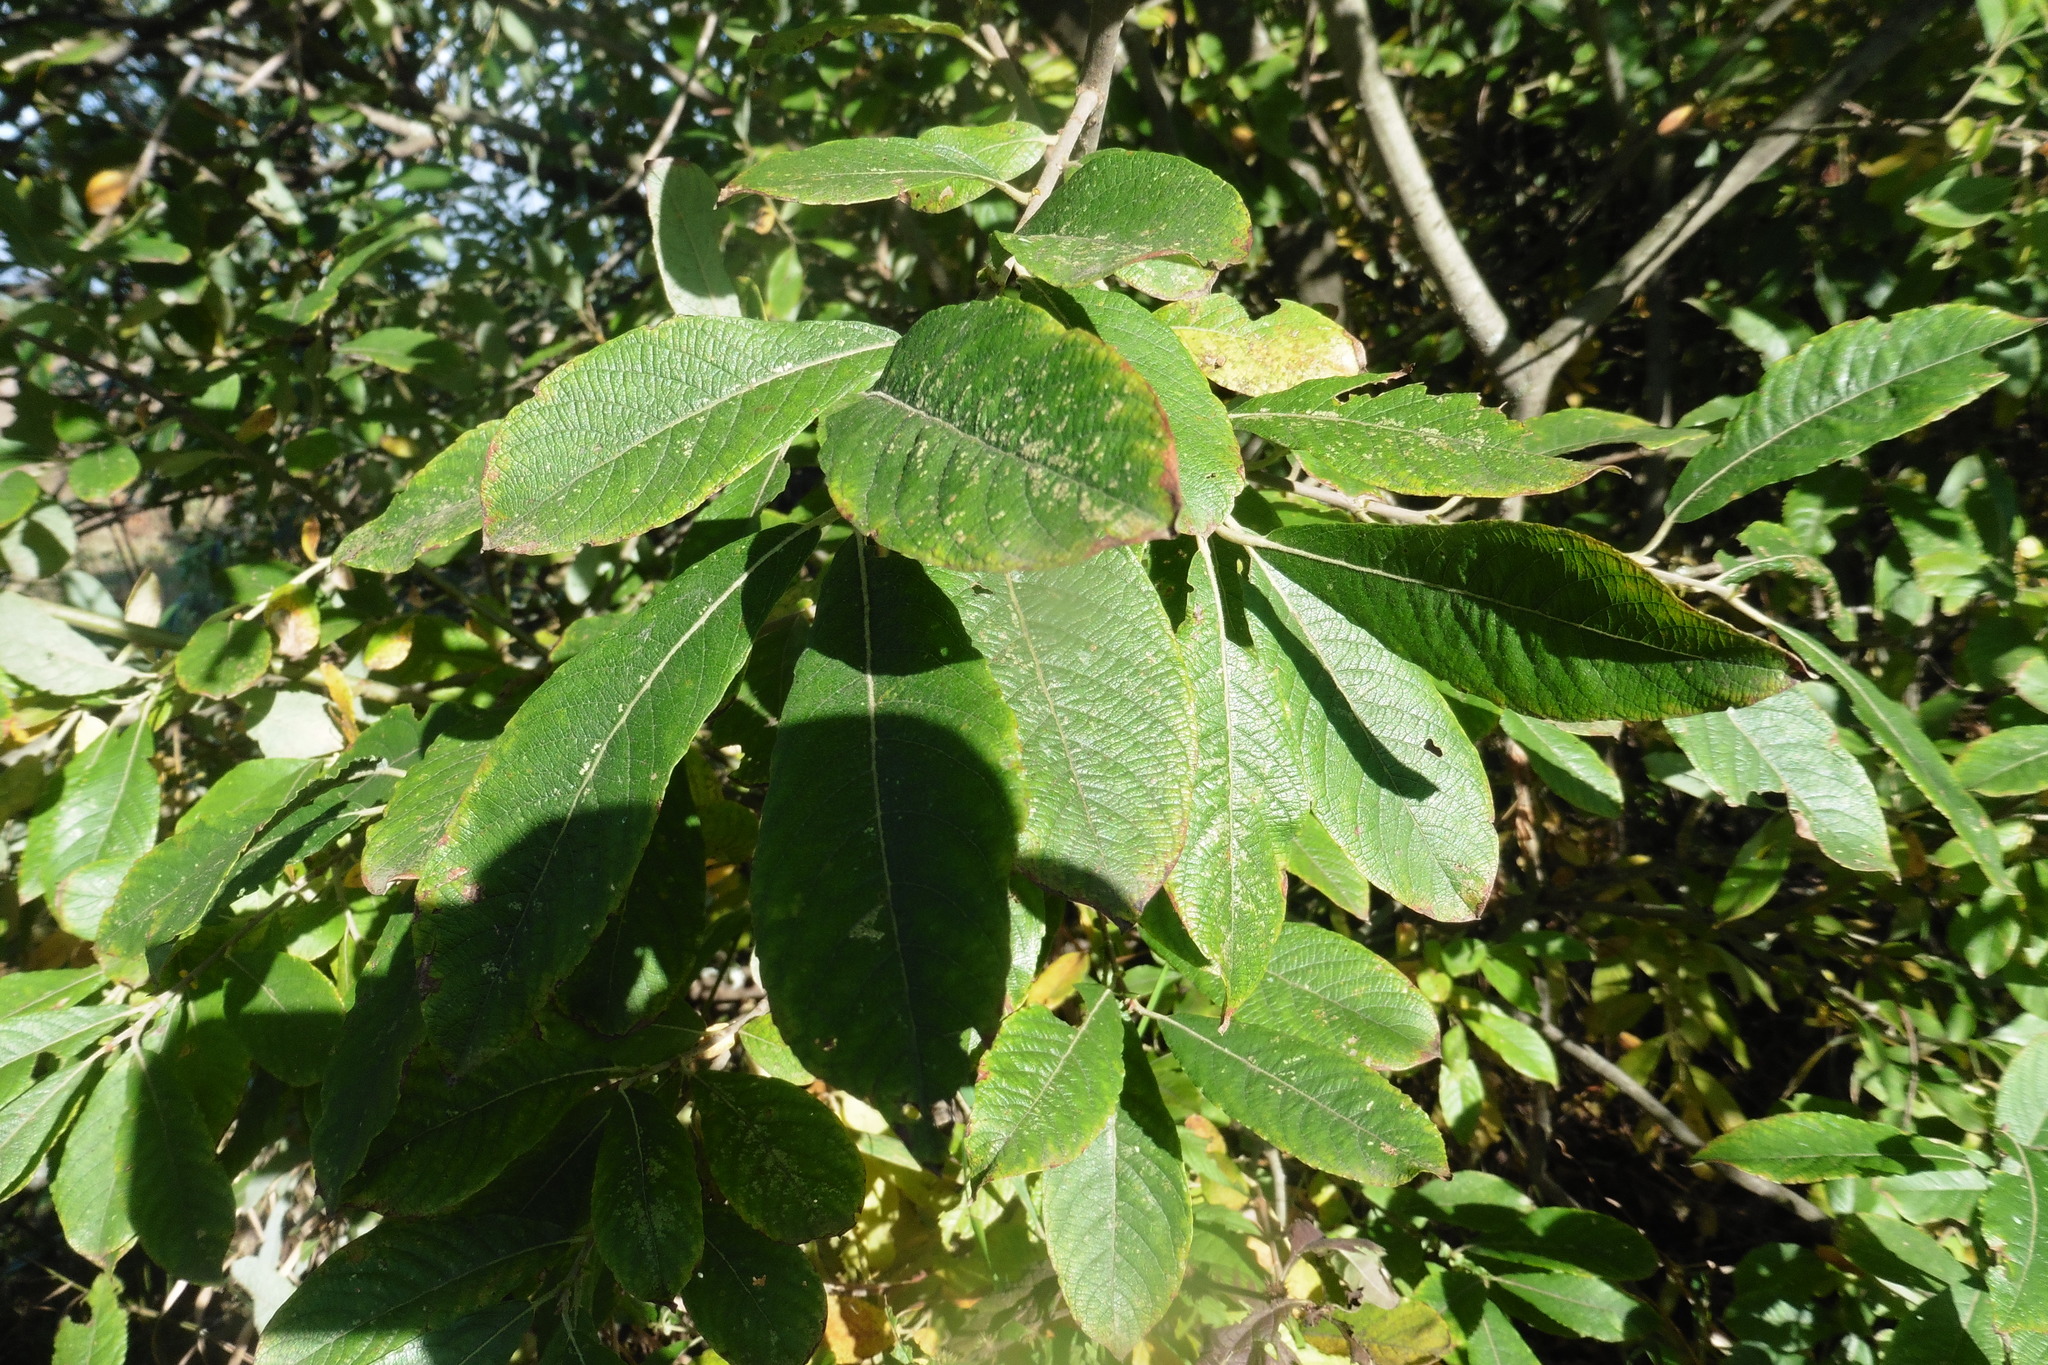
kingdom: Plantae
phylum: Tracheophyta
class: Magnoliopsida
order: Malpighiales
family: Salicaceae
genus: Salix
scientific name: Salix cinerea
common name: Common sallow
